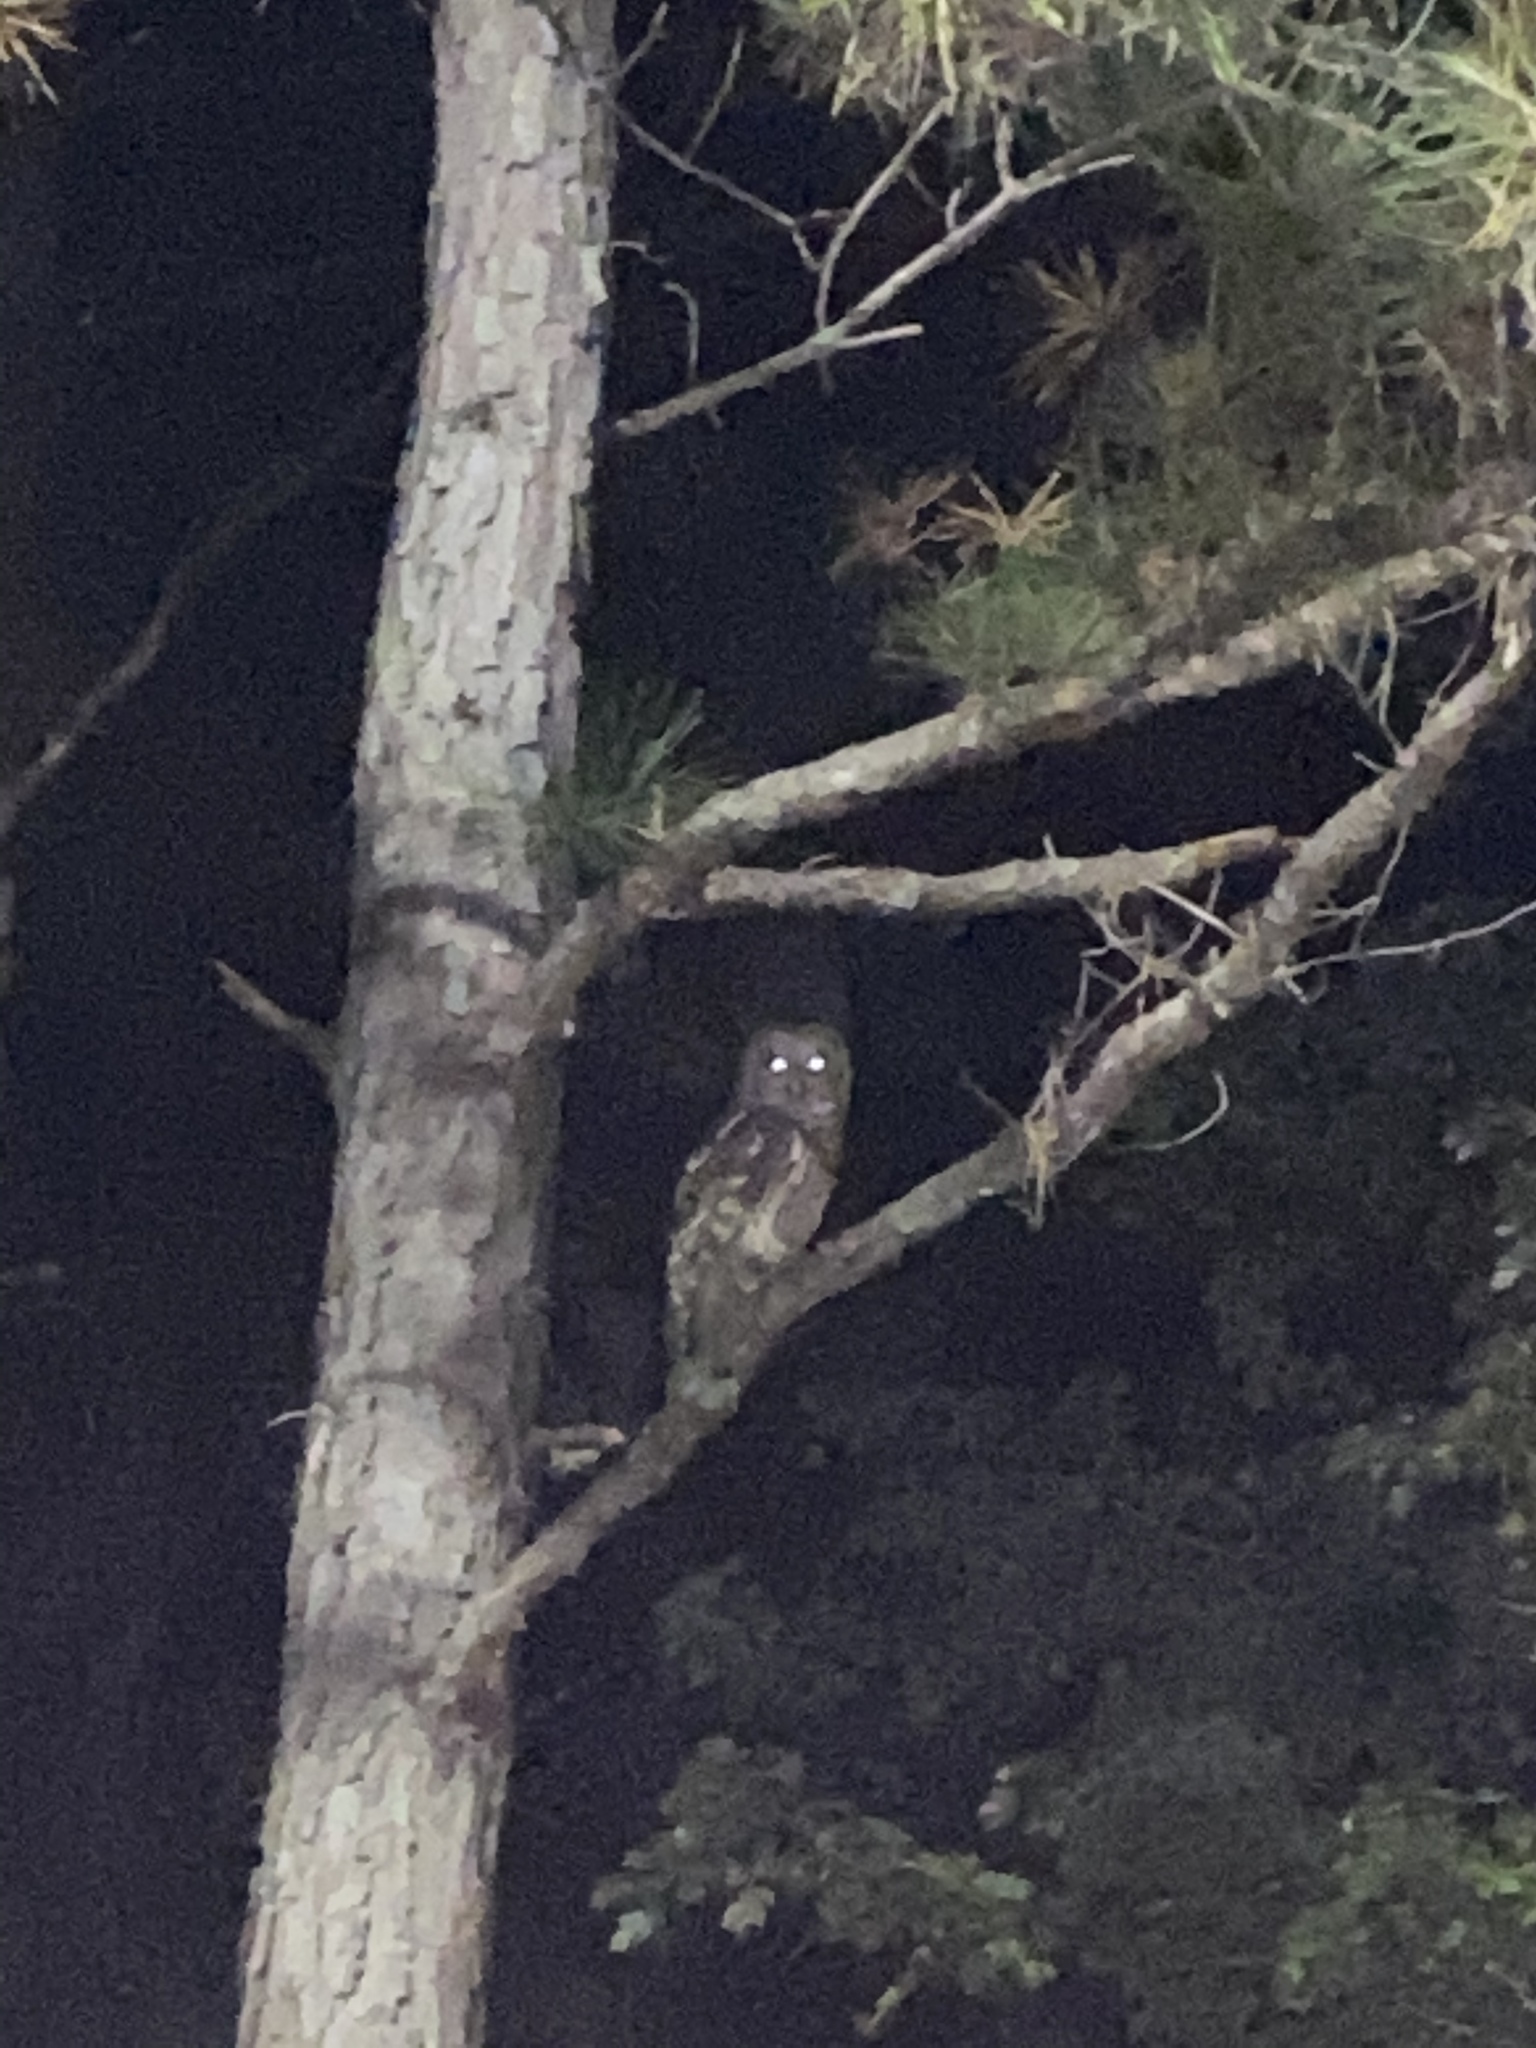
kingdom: Animalia
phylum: Chordata
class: Aves
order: Strigiformes
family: Strigidae
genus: Strix
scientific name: Strix varia
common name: Barred owl
